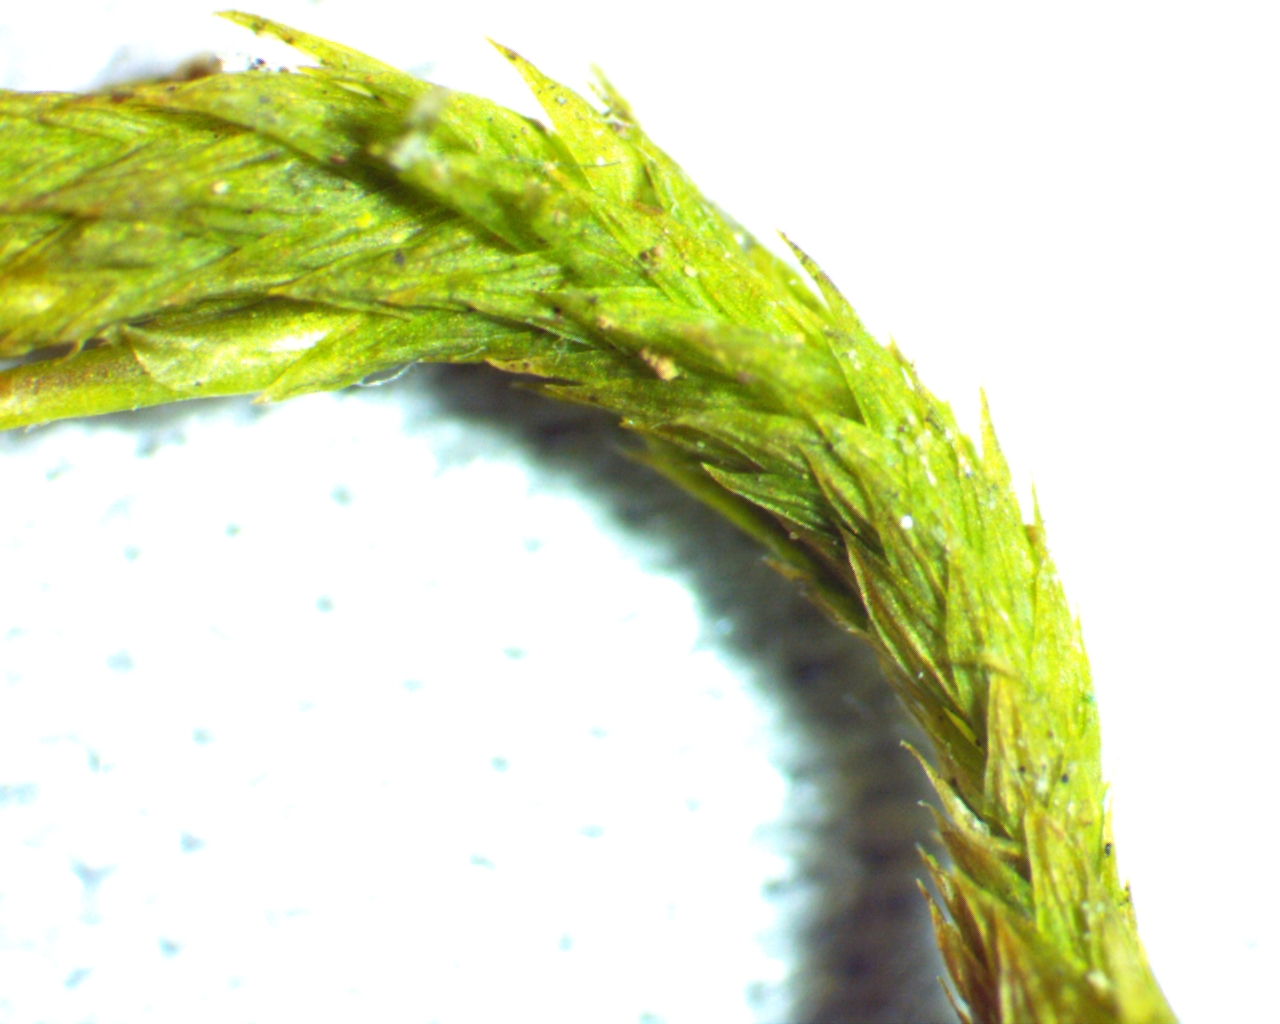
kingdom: Plantae
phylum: Bryophyta
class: Bryopsida
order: Hypnales
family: Leucodontaceae
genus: Leucodon
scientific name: Leucodon julaceus
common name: Smooth hook moss
